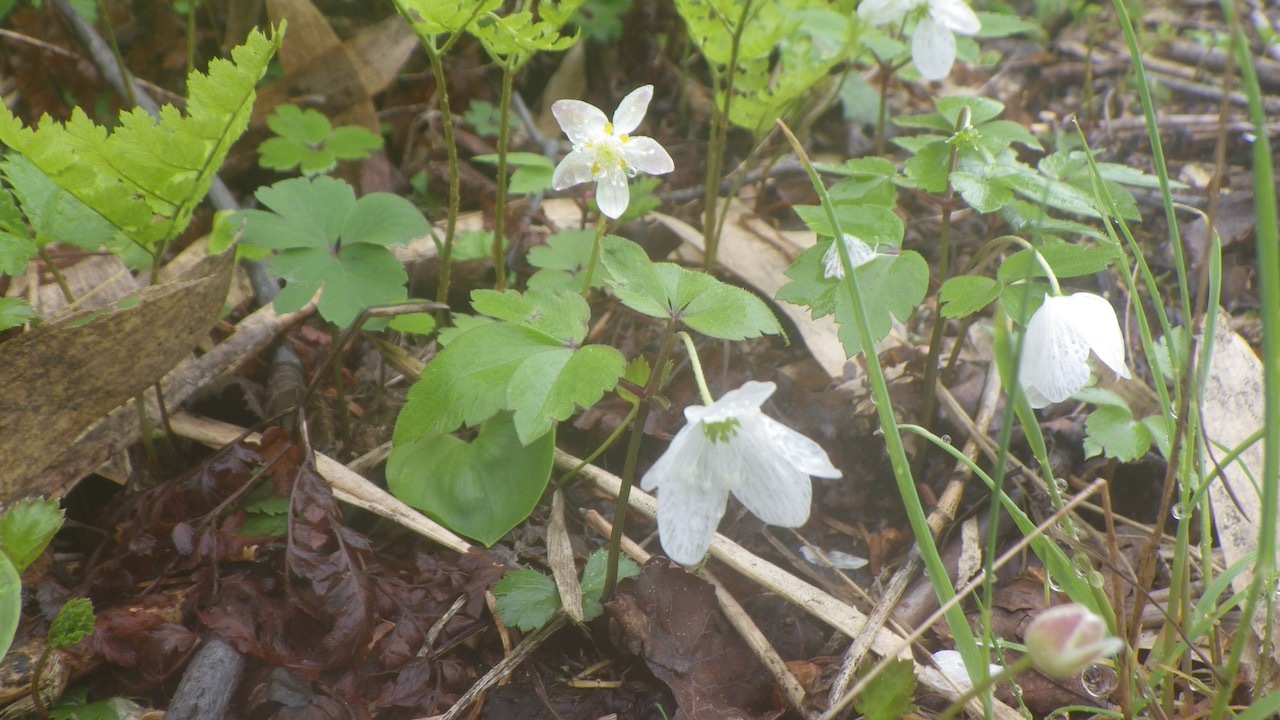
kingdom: Plantae
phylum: Tracheophyta
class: Magnoliopsida
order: Ranunculales
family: Ranunculaceae
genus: Anemonastrum
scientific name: Anemonastrum flaccidum
